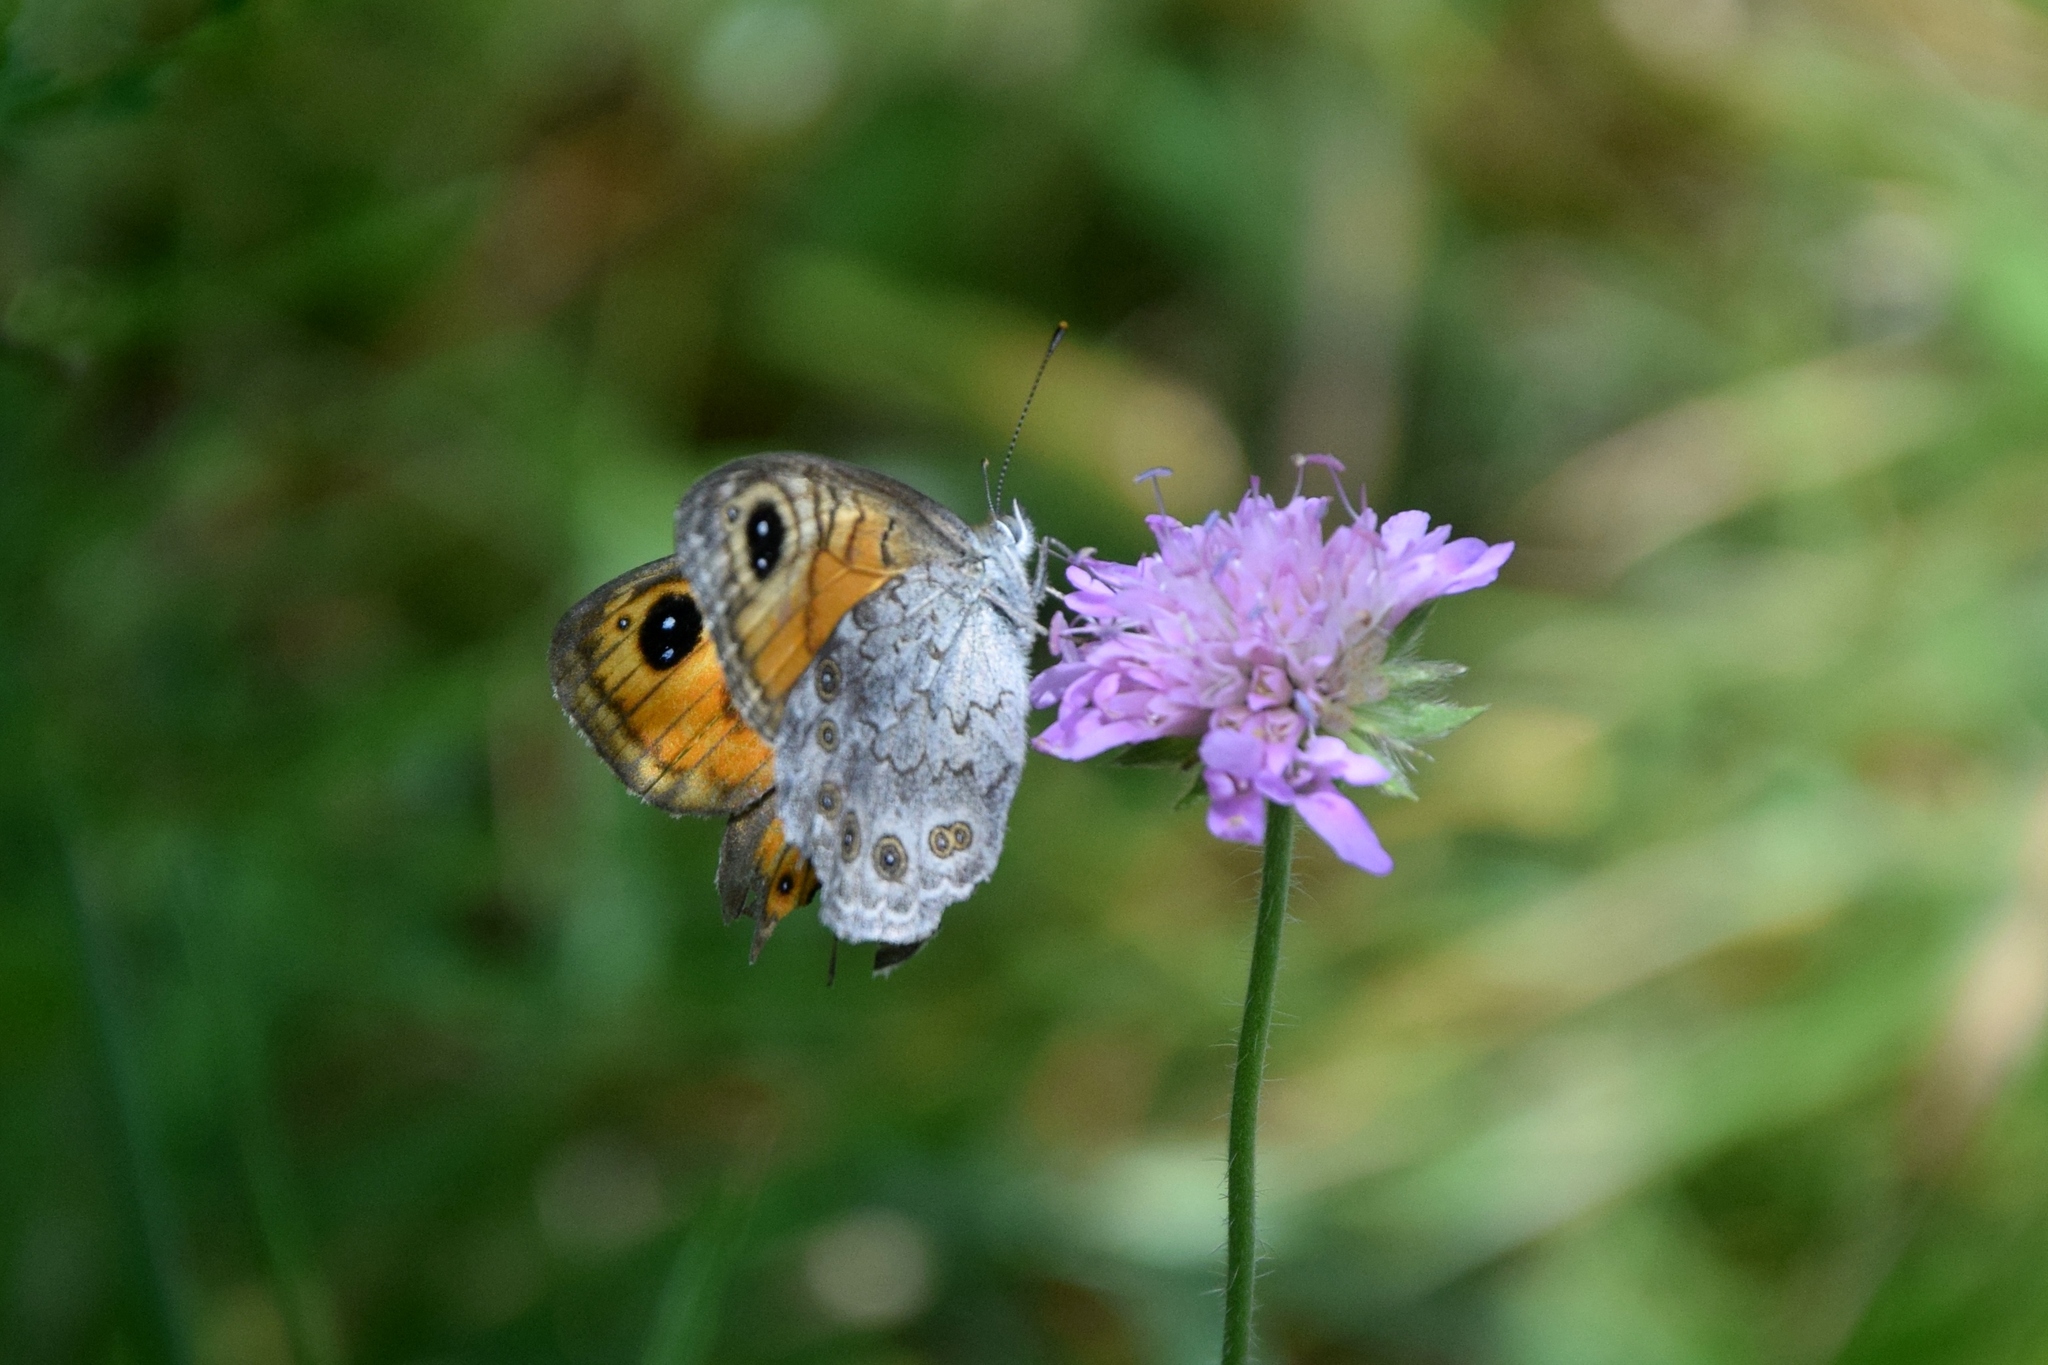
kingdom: Animalia
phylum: Arthropoda
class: Insecta
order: Lepidoptera
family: Nymphalidae
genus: Pararge
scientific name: Pararge Lasiommata maera
